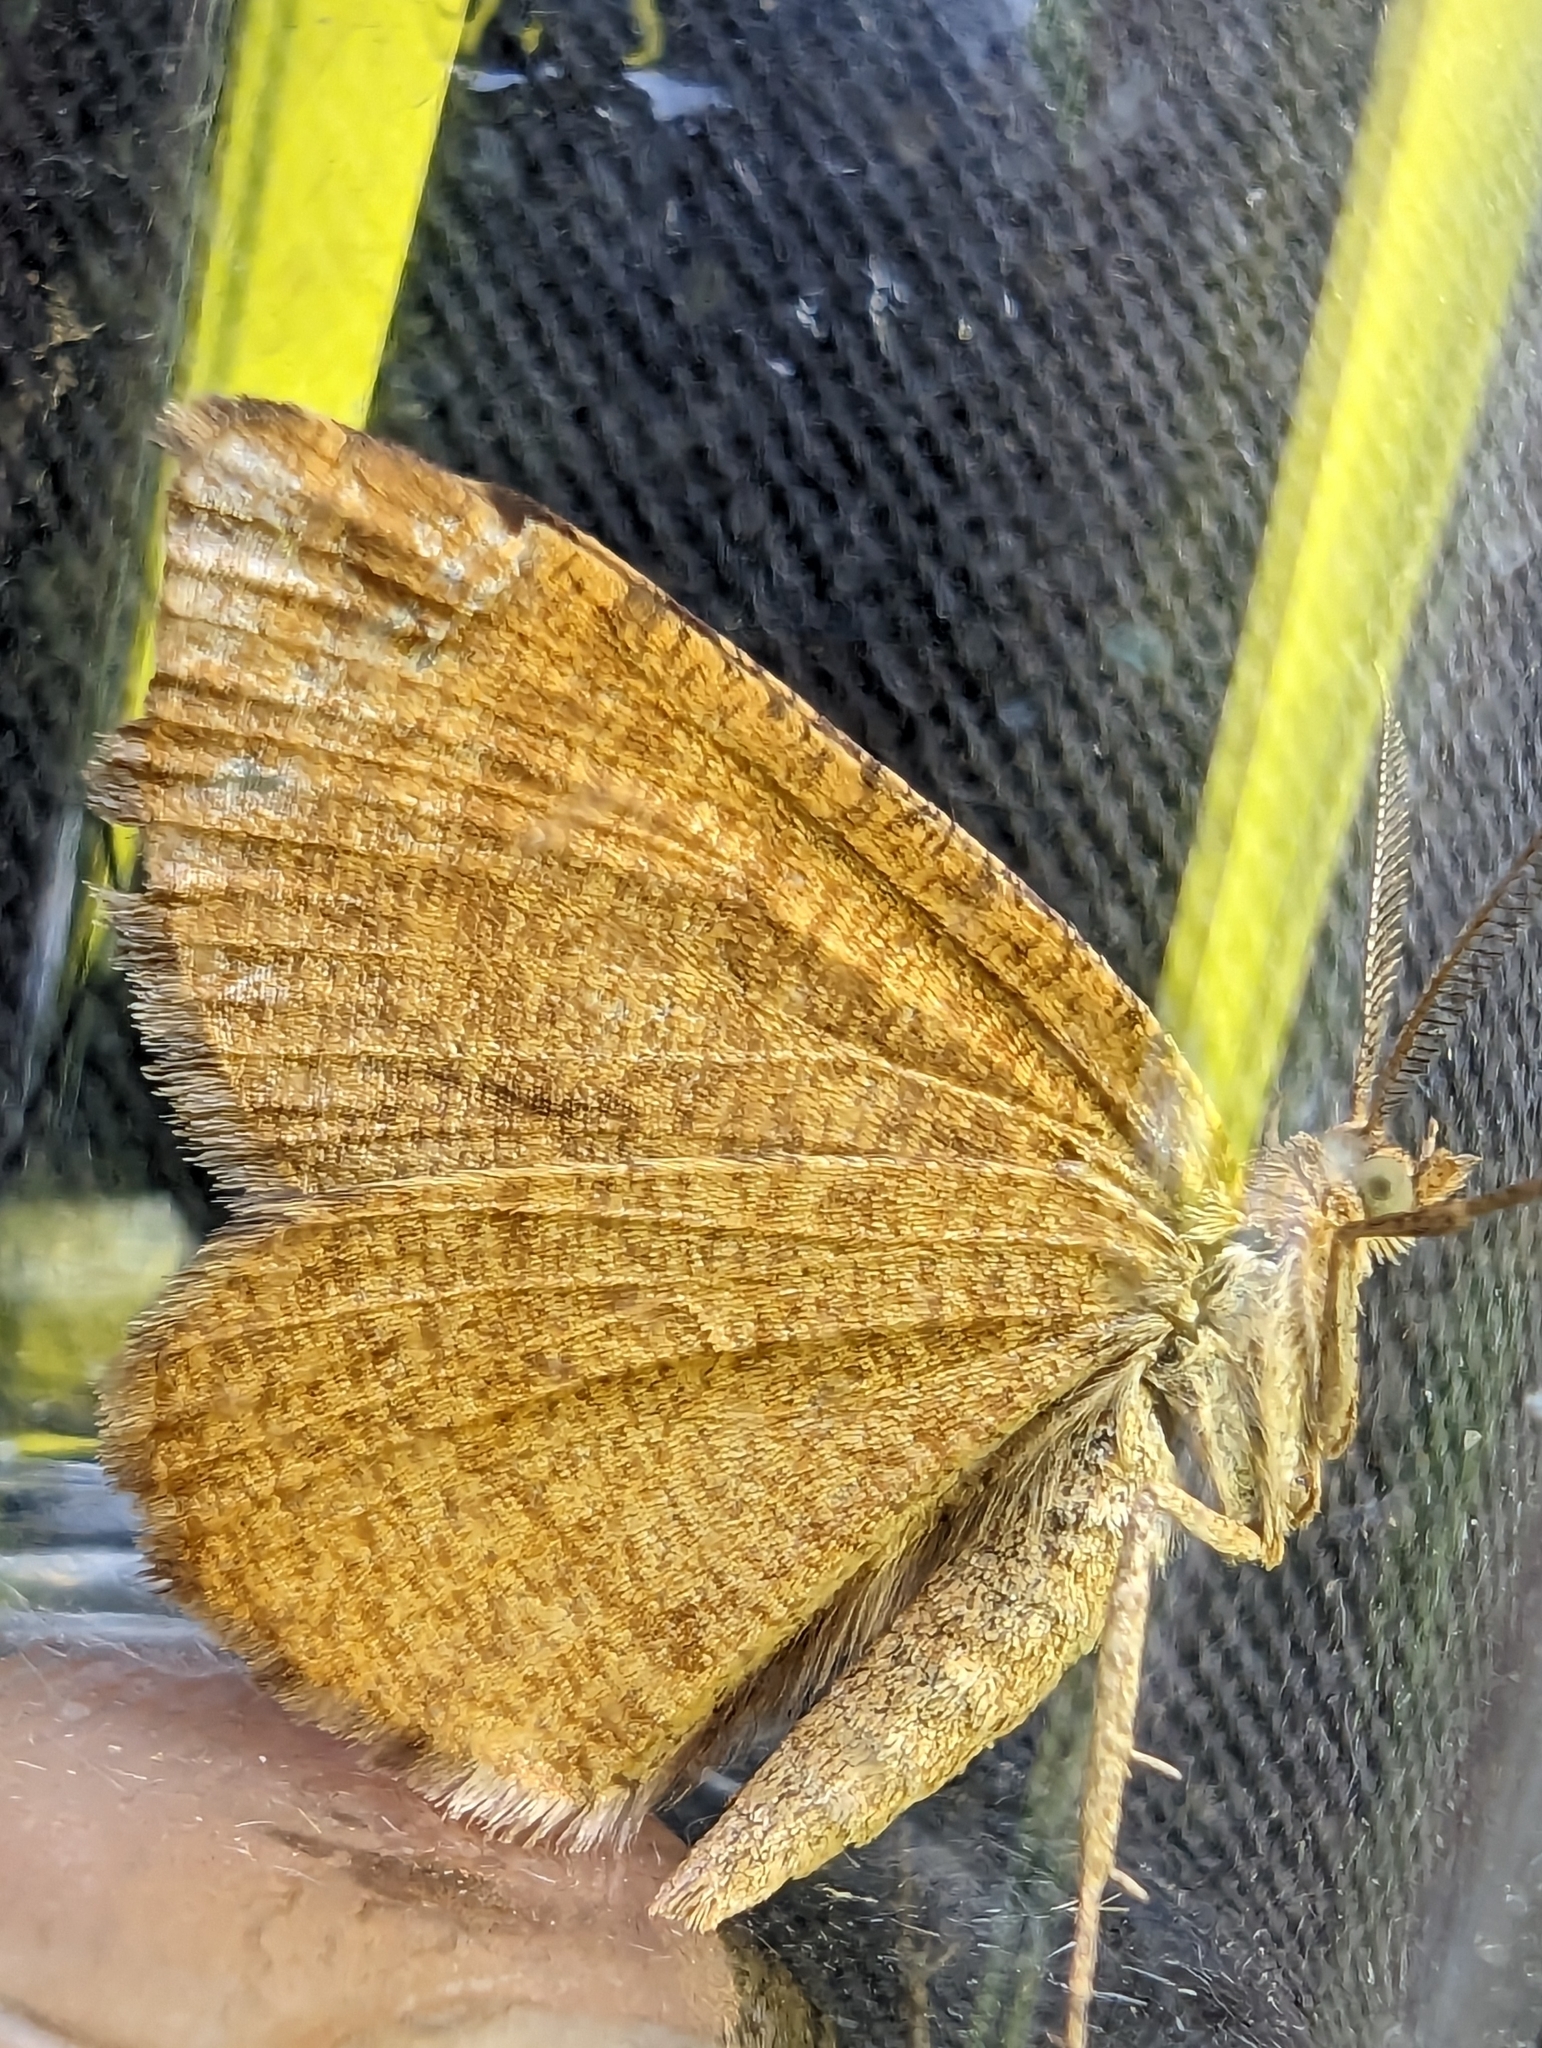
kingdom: Animalia
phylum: Arthropoda
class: Insecta
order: Lepidoptera
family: Geometridae
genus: Macaria
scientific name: Macaria brunneata
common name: Rannoch looper
